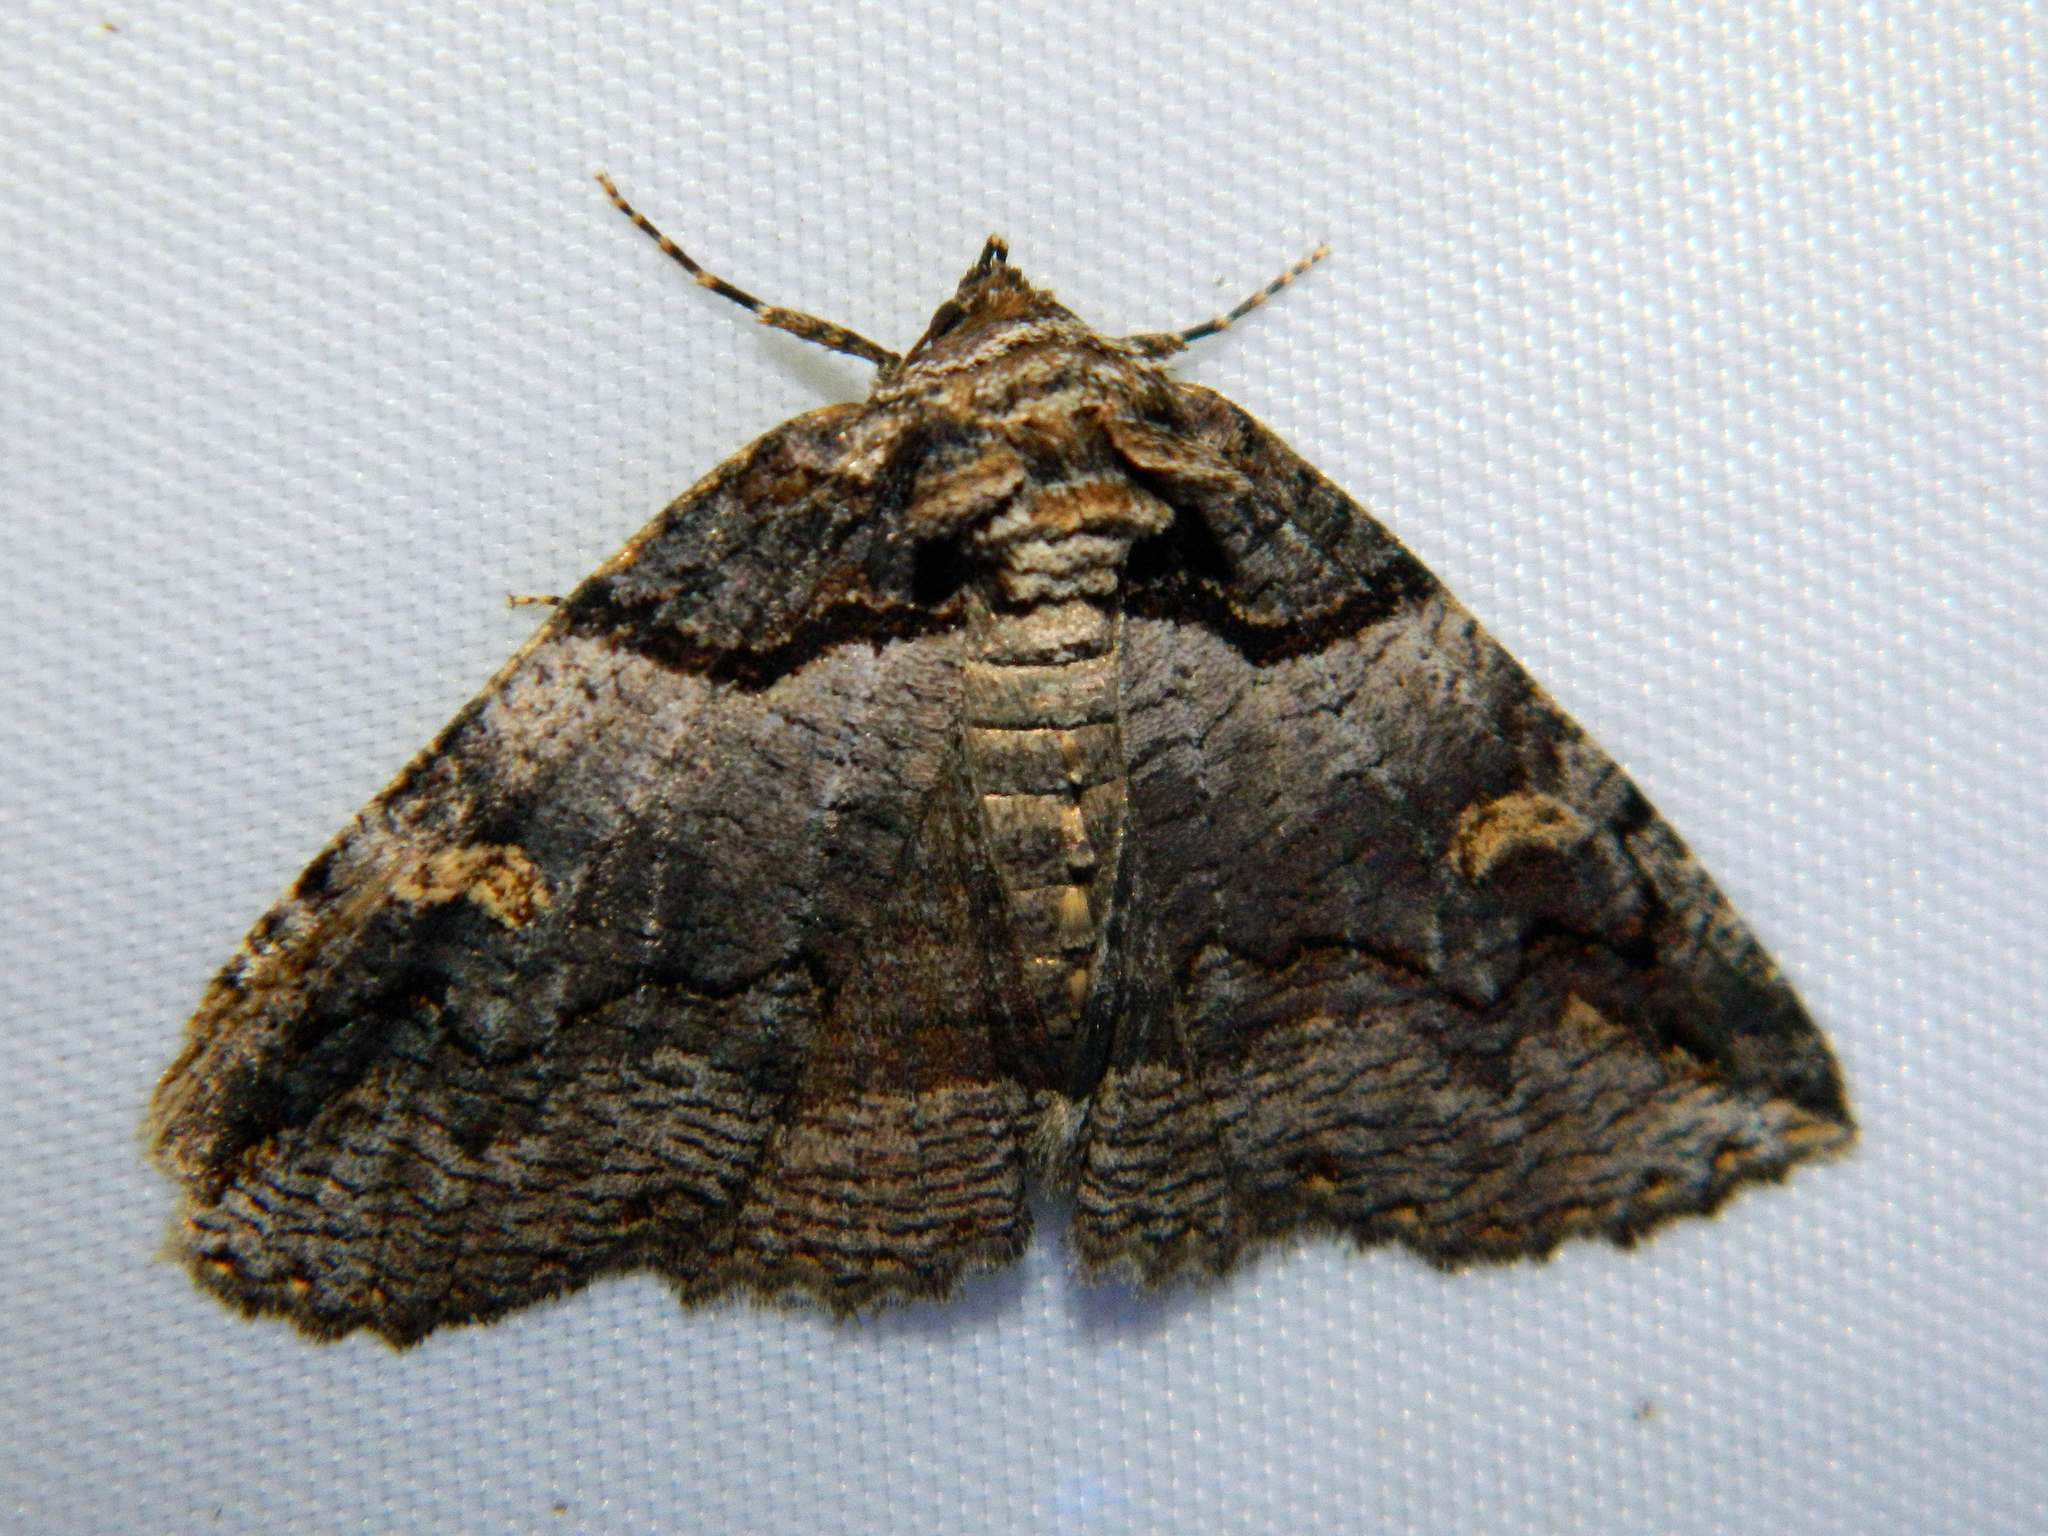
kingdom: Animalia
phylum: Arthropoda
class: Insecta
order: Lepidoptera
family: Erebidae
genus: Zale
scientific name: Zale intenta
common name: Intent zale moth
